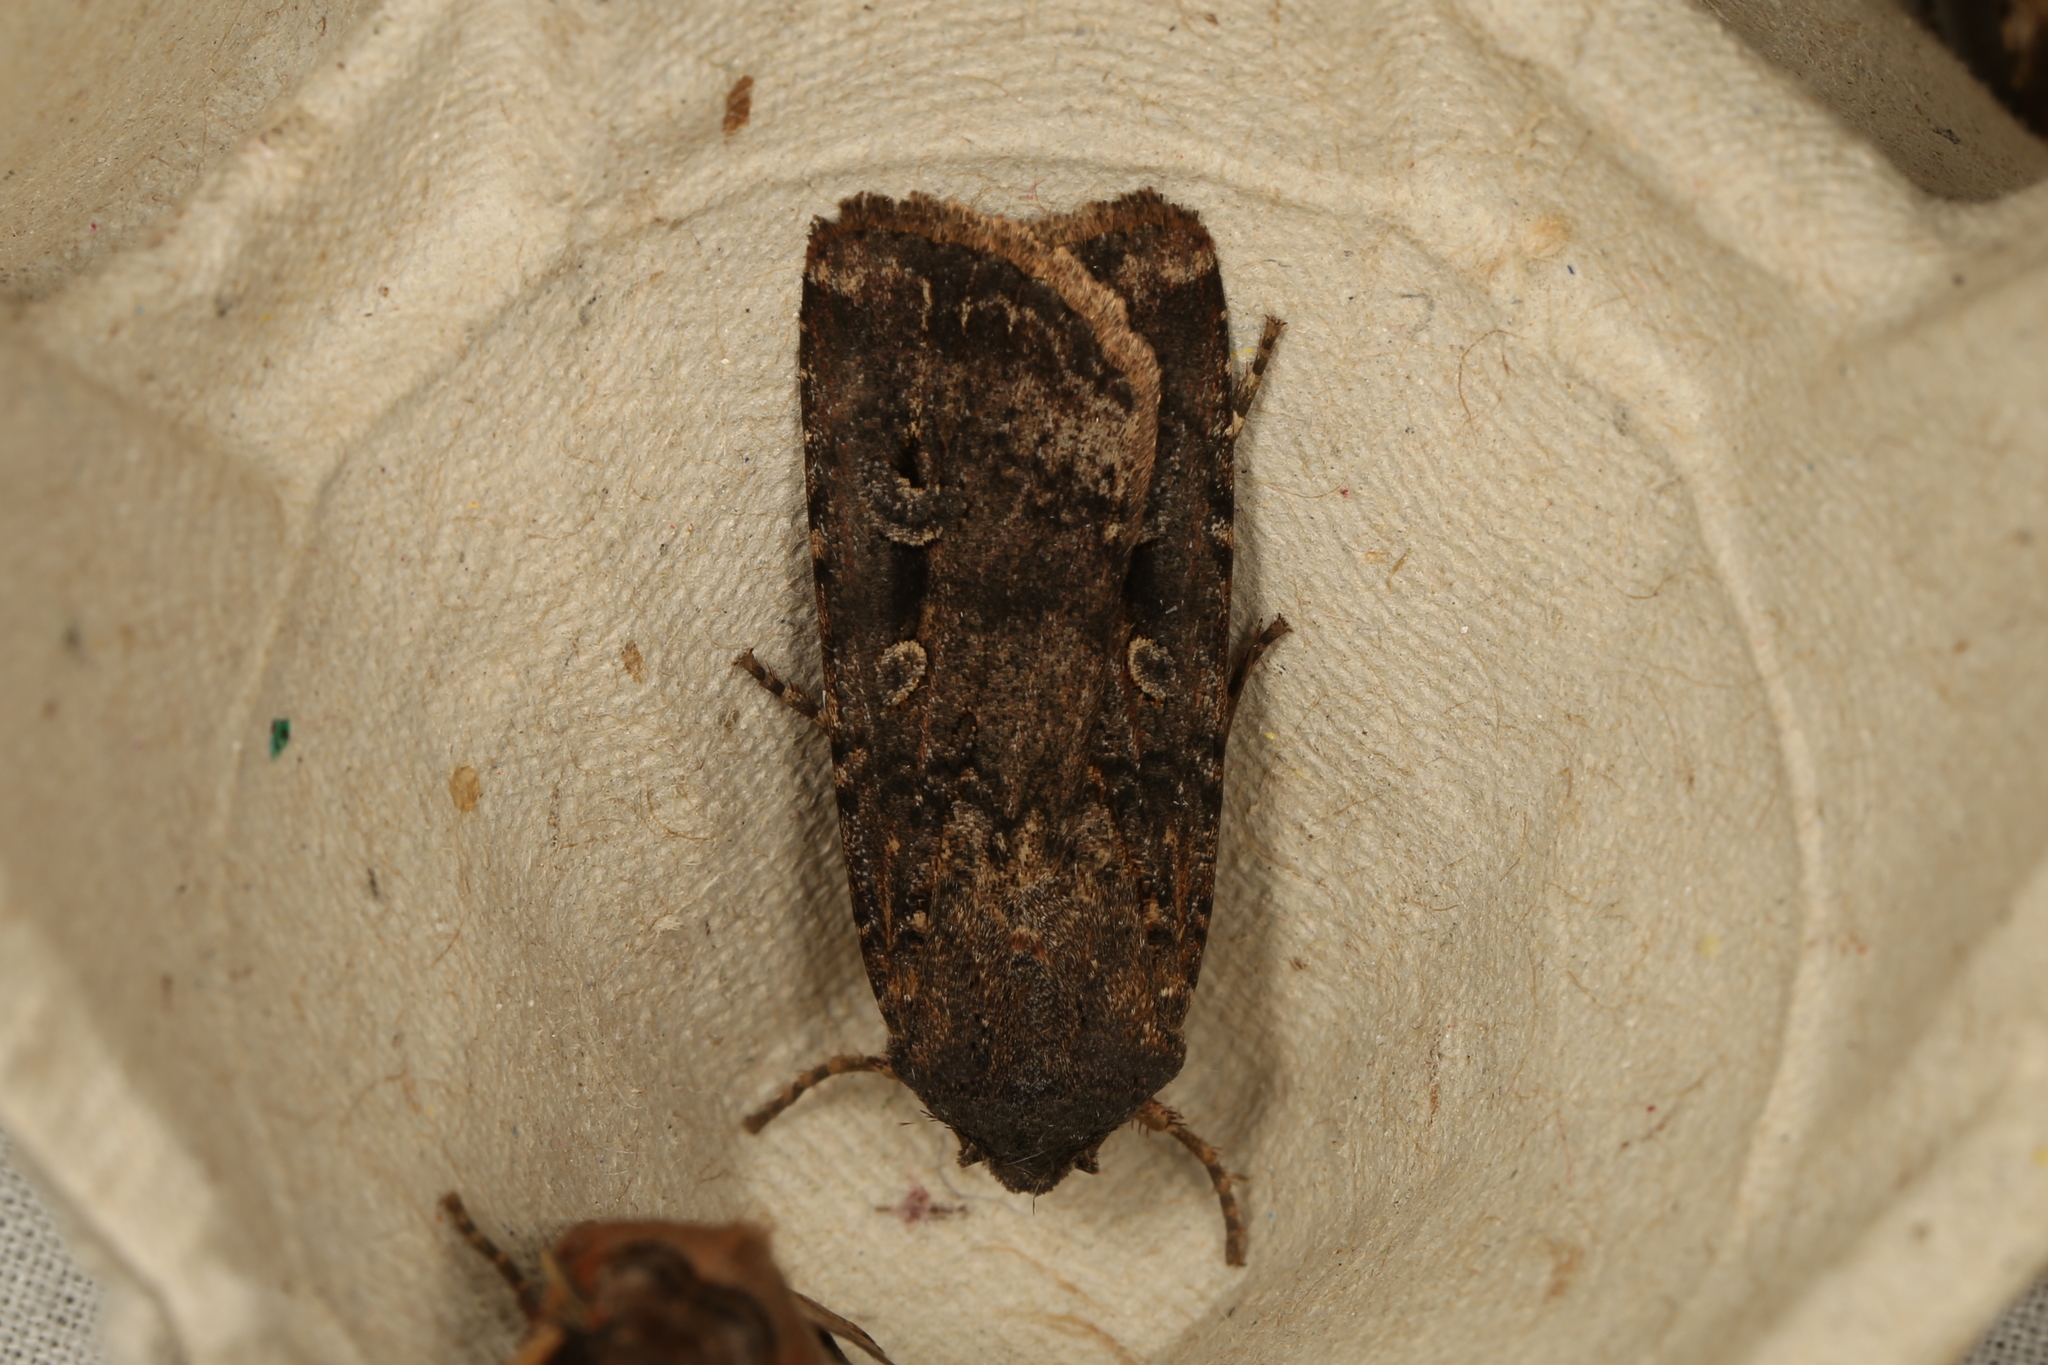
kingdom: Animalia
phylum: Arthropoda
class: Insecta
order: Lepidoptera
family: Noctuidae
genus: Agrotis
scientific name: Agrotis infusa
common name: Bogong moth
